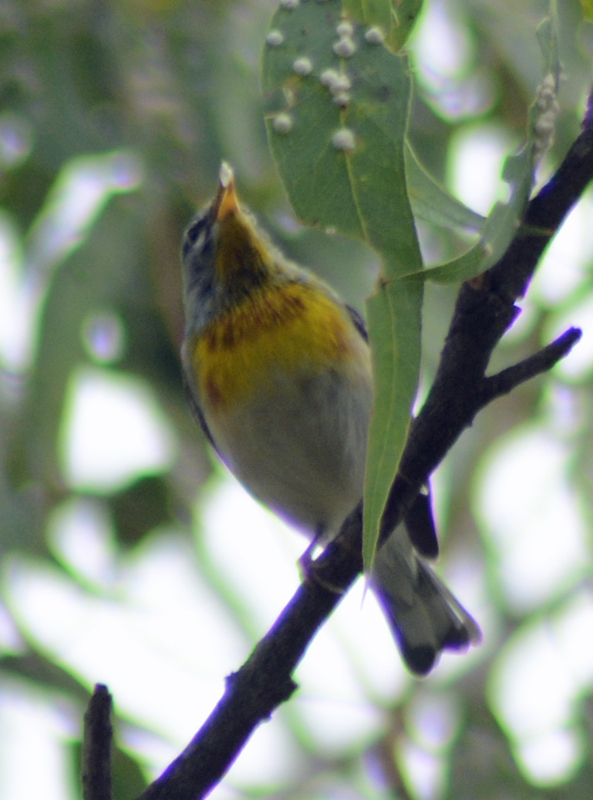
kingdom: Animalia
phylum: Chordata
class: Aves
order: Passeriformes
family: Parulidae
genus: Setophaga
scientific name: Setophaga americana
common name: Northern parula
